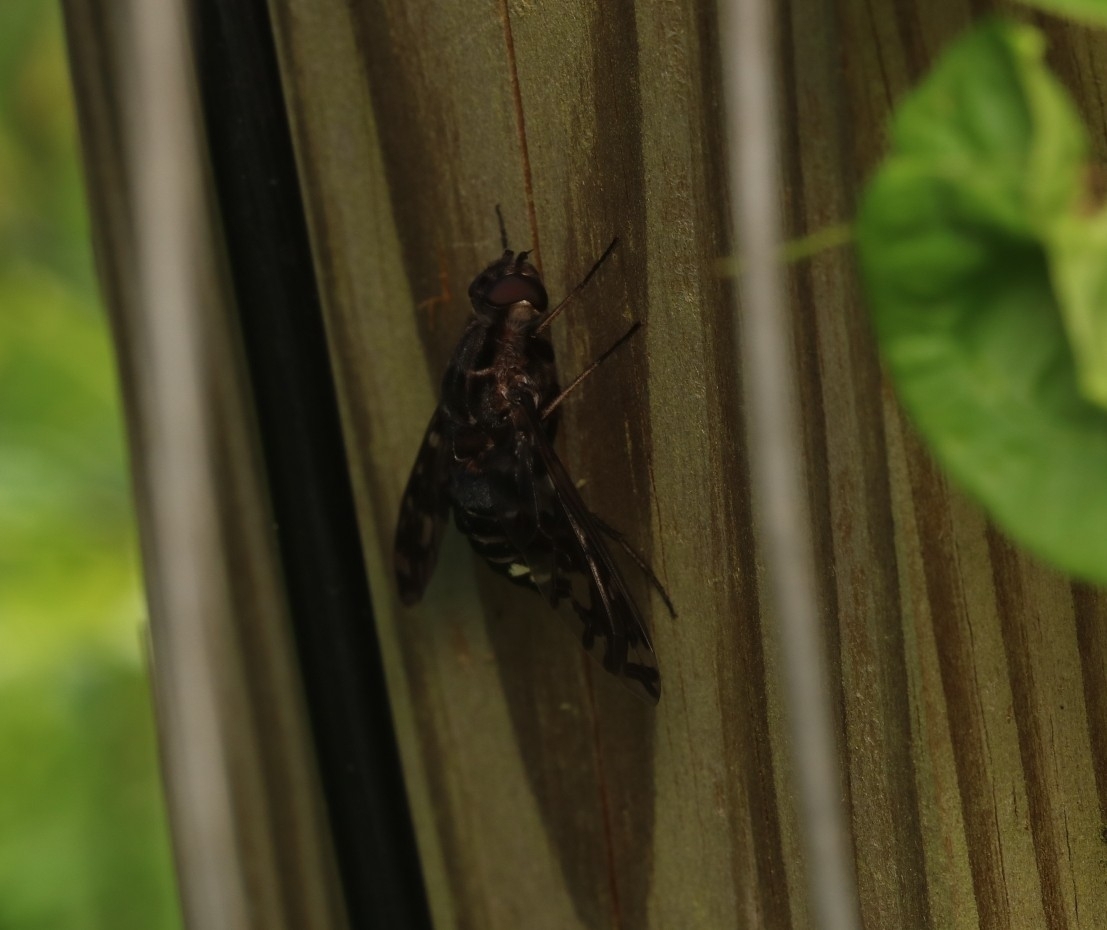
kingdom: Animalia
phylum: Arthropoda
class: Insecta
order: Diptera
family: Bombyliidae
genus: Xenox
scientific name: Xenox tigrinus
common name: Tiger bee fly
